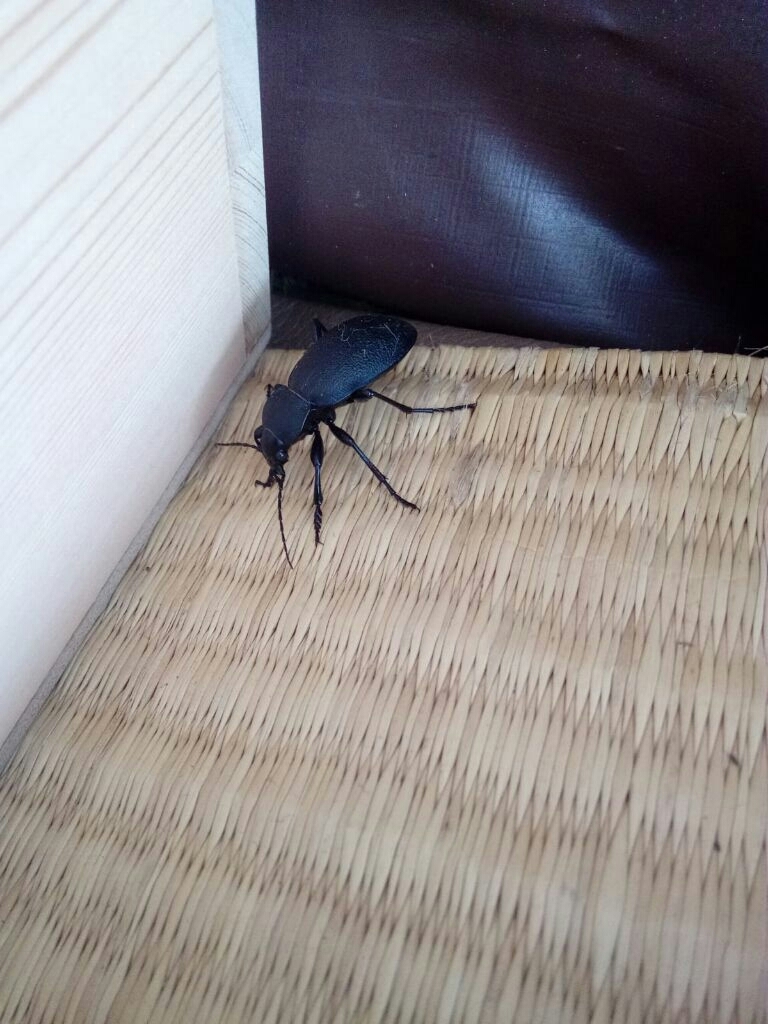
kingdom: Animalia
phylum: Arthropoda
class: Insecta
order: Coleoptera
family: Carabidae
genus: Carabus
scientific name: Carabus coriaceus
